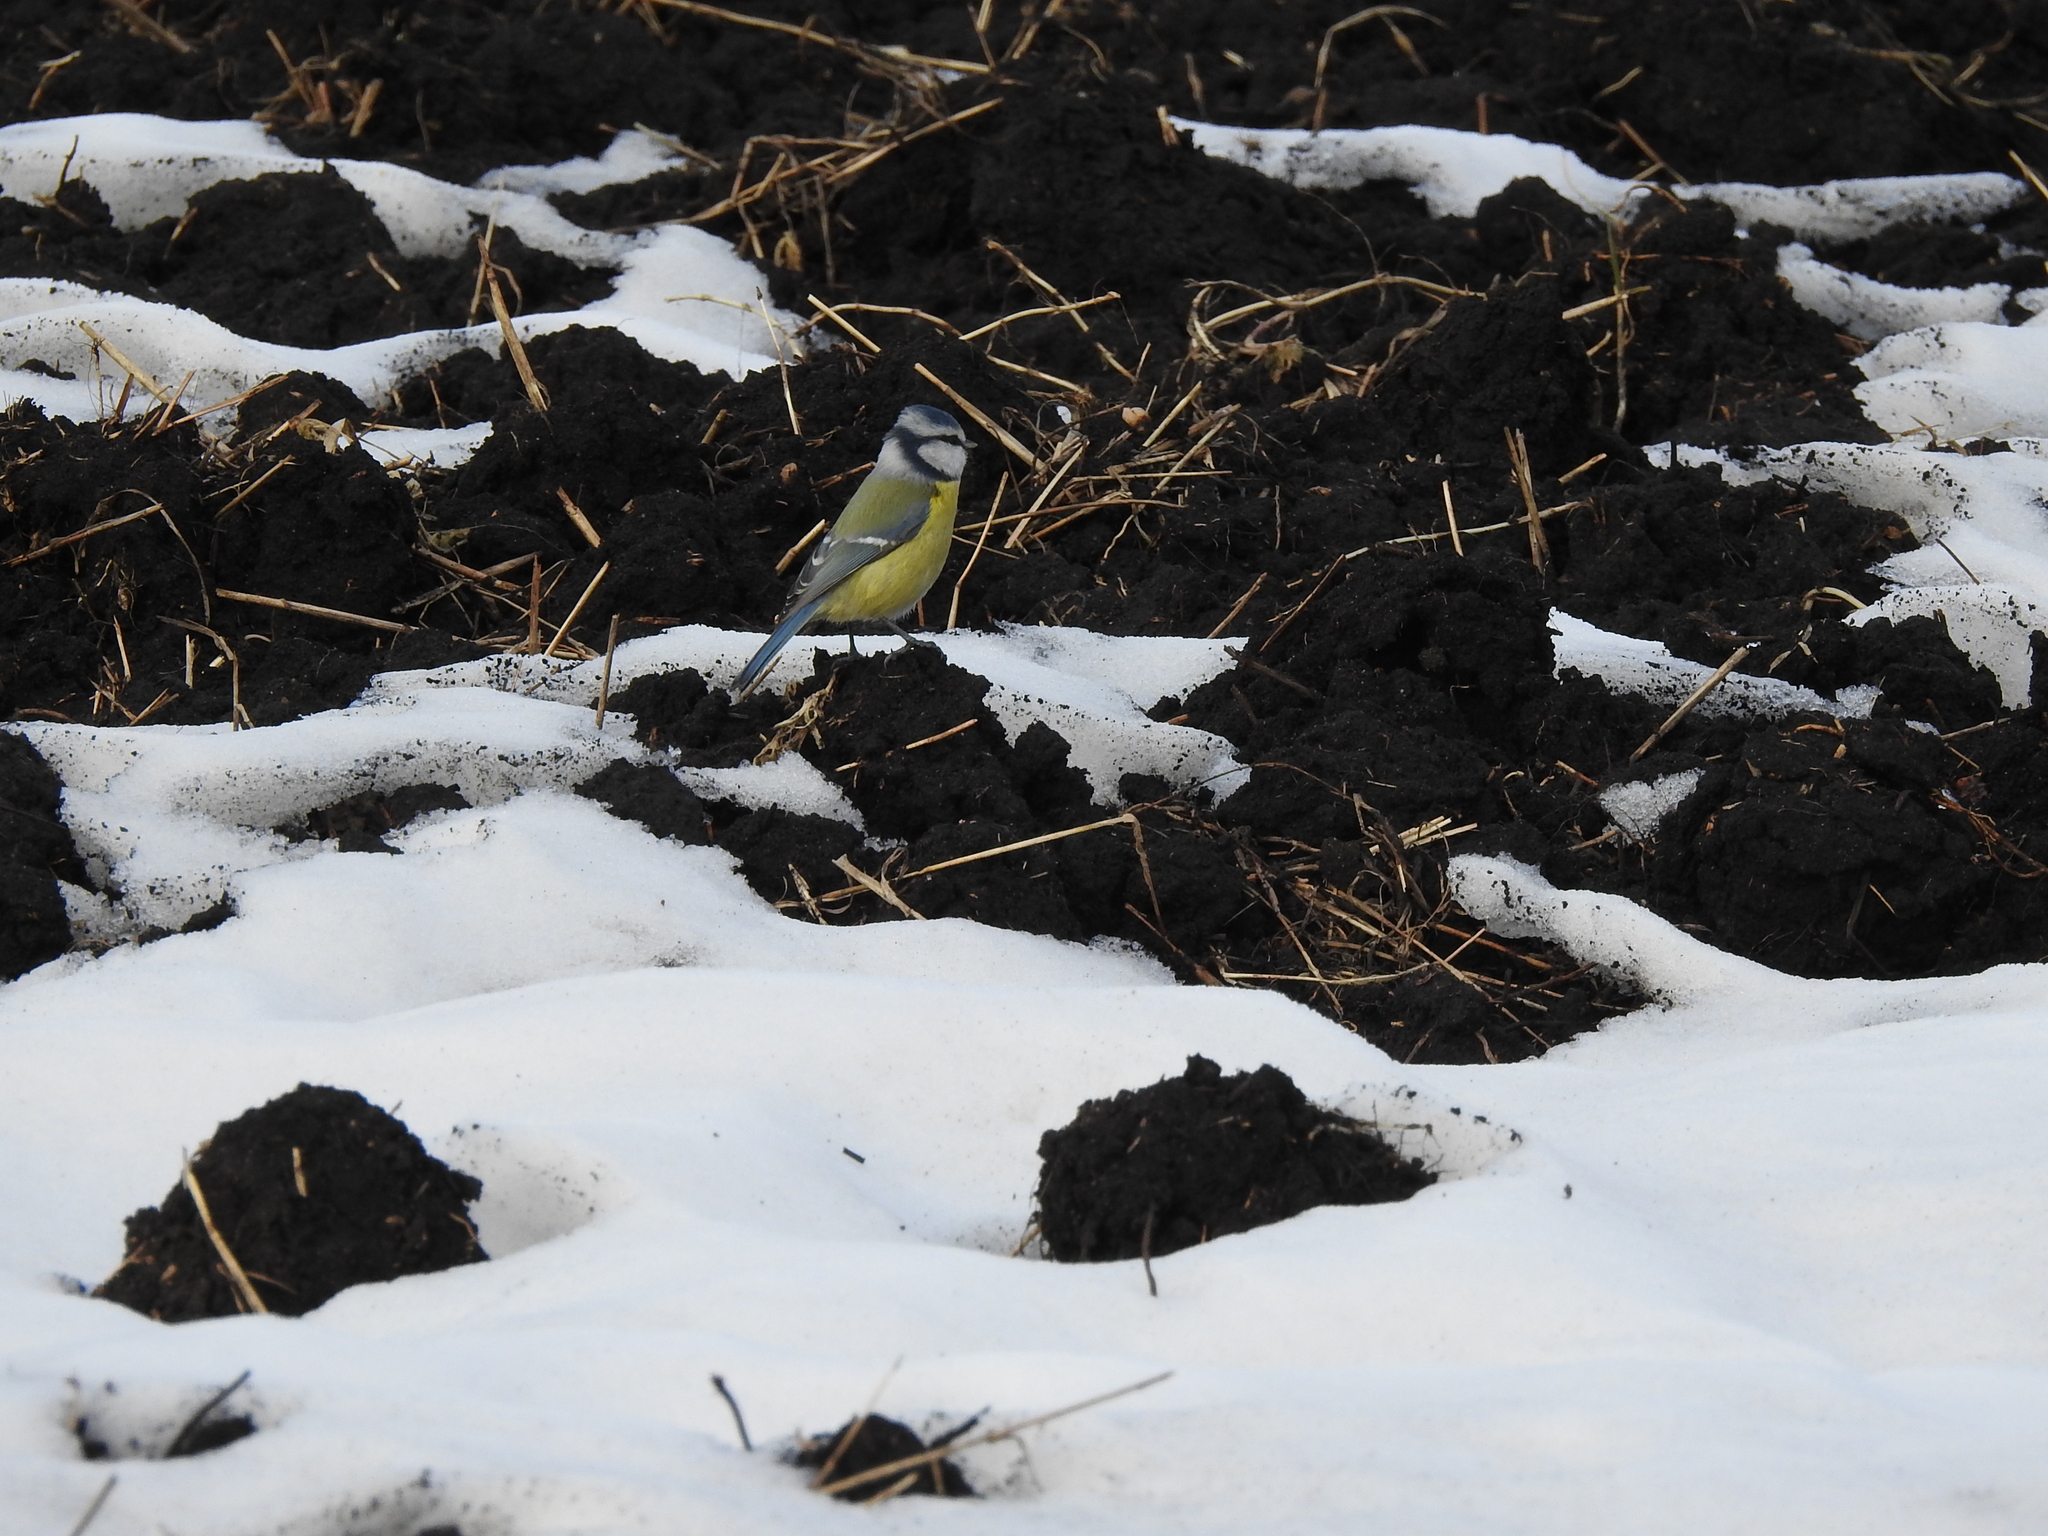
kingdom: Animalia
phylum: Chordata
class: Aves
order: Passeriformes
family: Paridae
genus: Cyanistes
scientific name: Cyanistes caeruleus
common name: Eurasian blue tit
